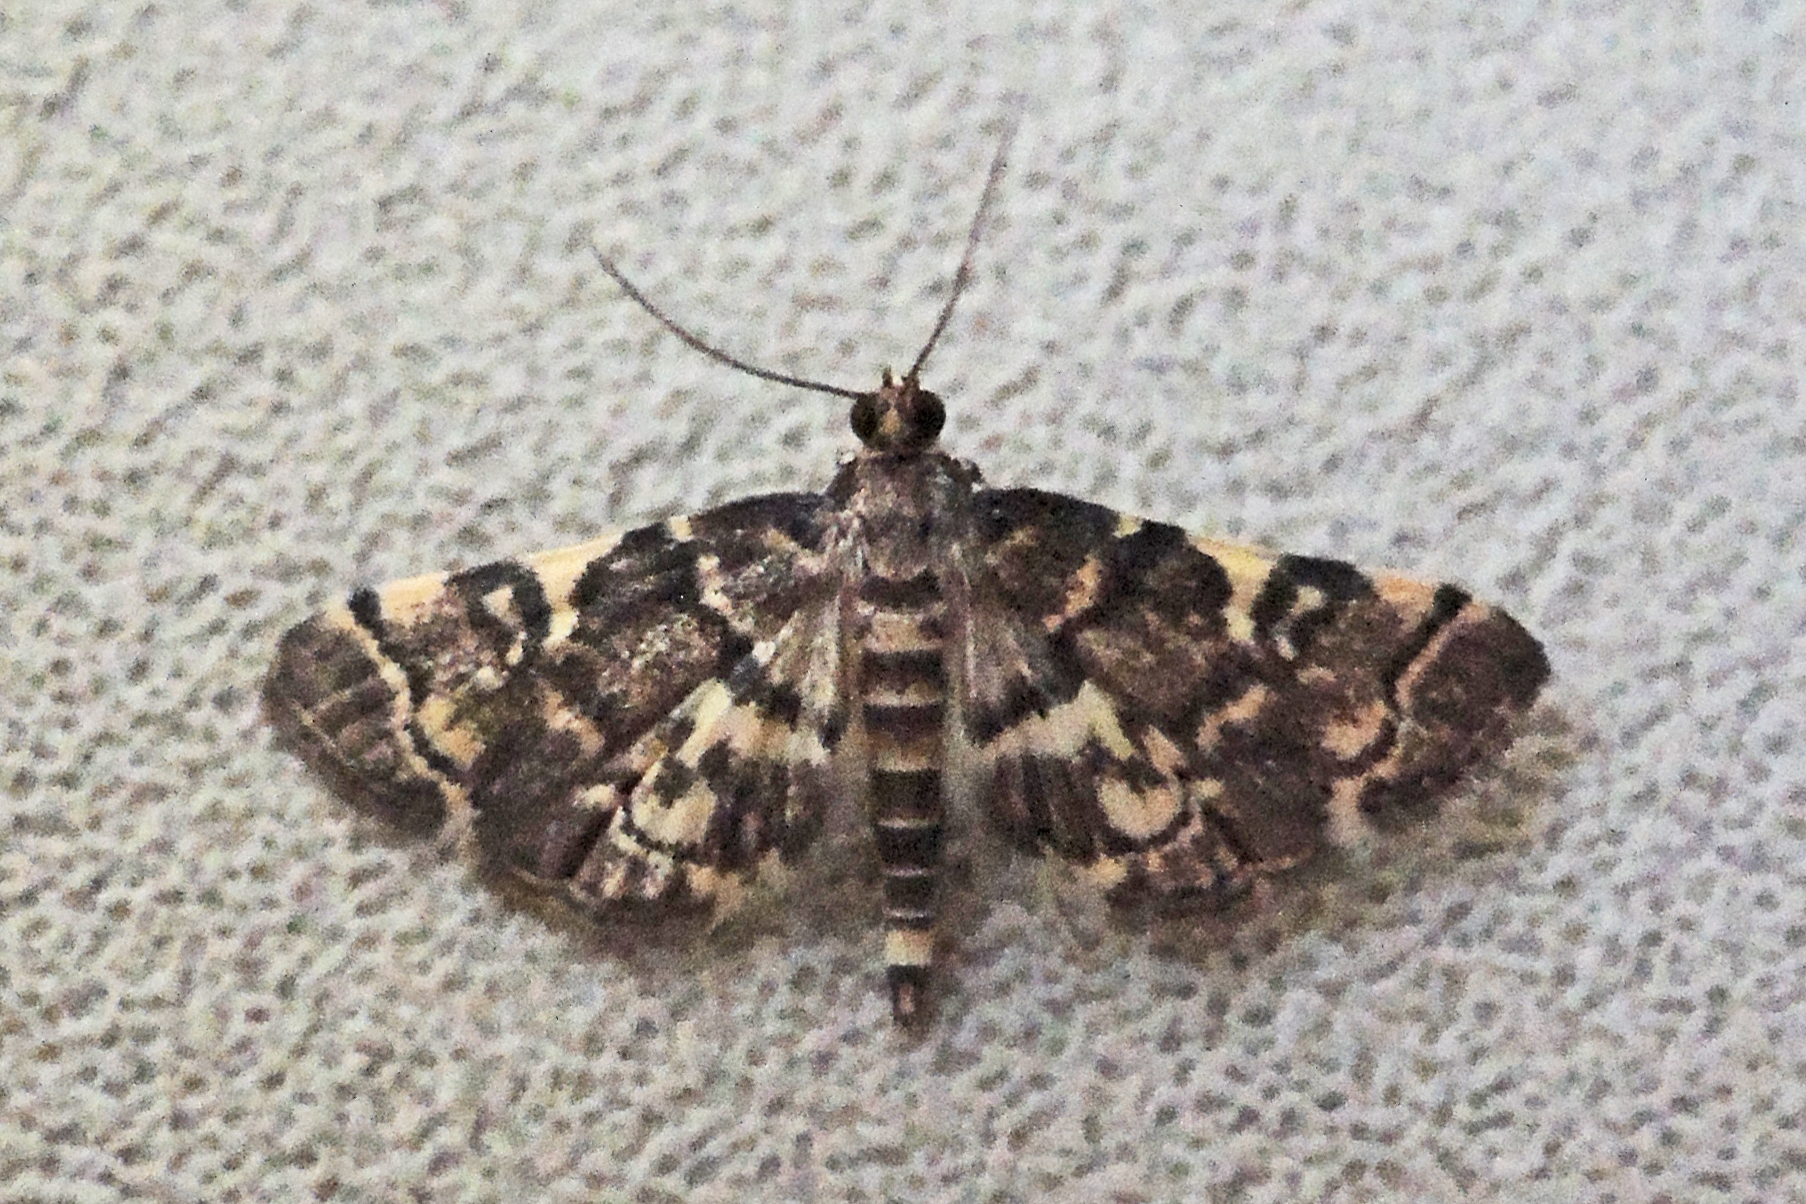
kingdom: Animalia
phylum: Arthropoda
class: Insecta
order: Lepidoptera
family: Crambidae
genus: Anageshna
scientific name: Anageshna primordialis
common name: Yellow-spotted webworm moth
